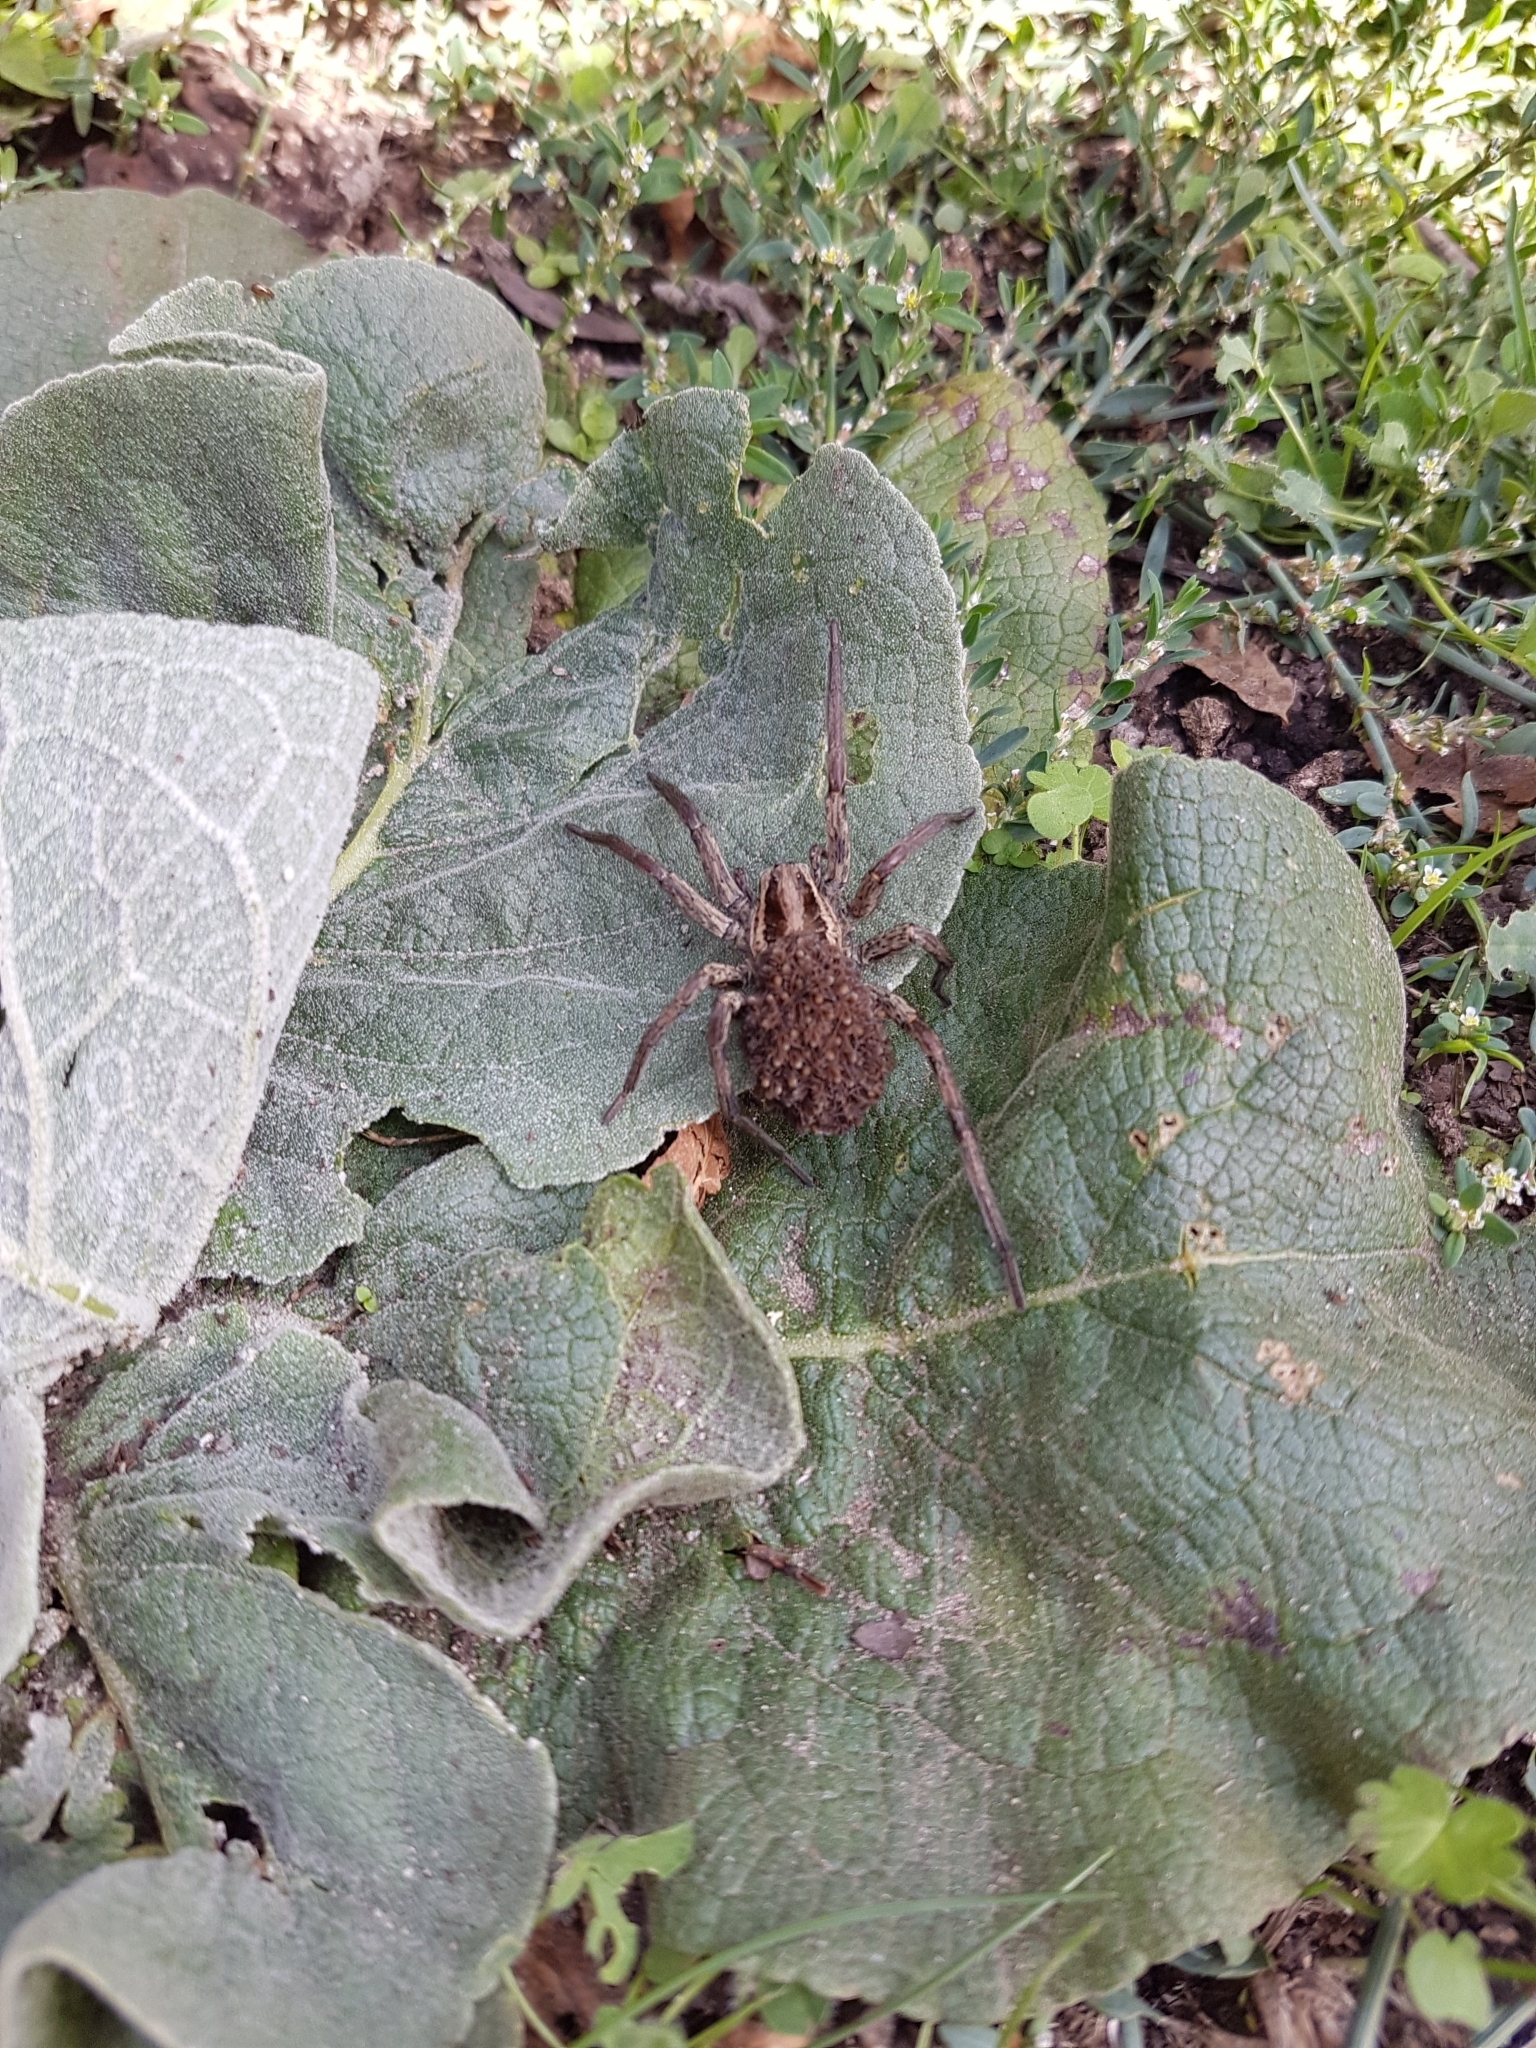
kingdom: Animalia
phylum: Arthropoda
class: Arachnida
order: Araneae
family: Lycosidae
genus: Hogna
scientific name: Hogna radiata
